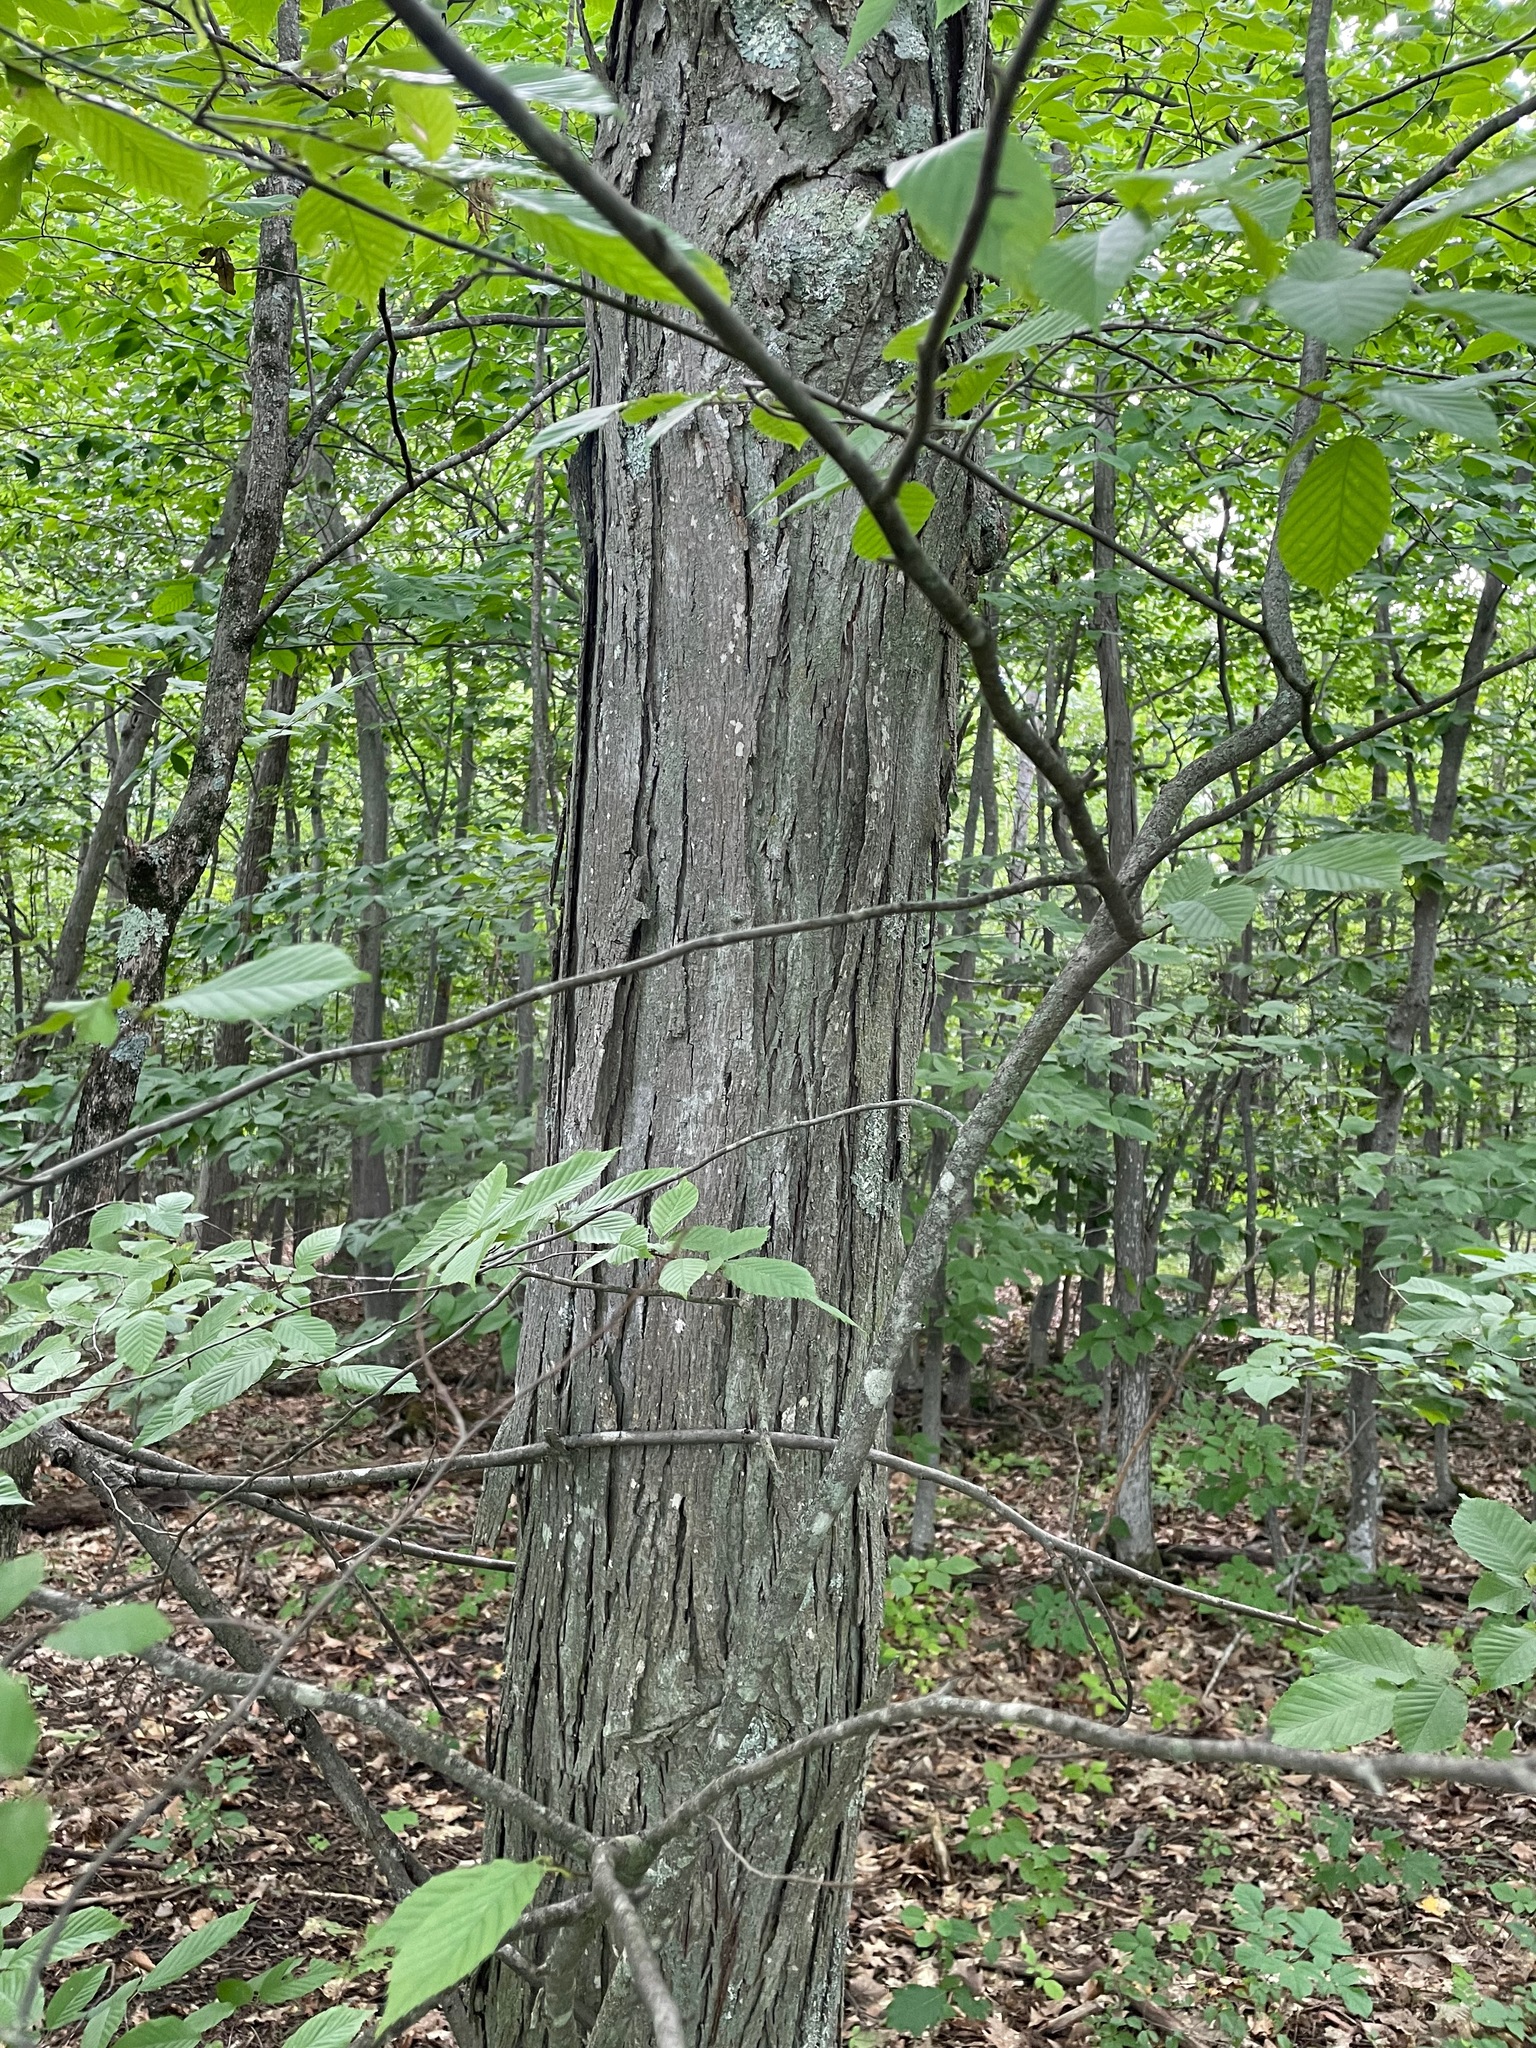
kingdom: Plantae
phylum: Tracheophyta
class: Magnoliopsida
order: Fagales
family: Juglandaceae
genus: Carya
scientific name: Carya ovata
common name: Shagbark hickory
